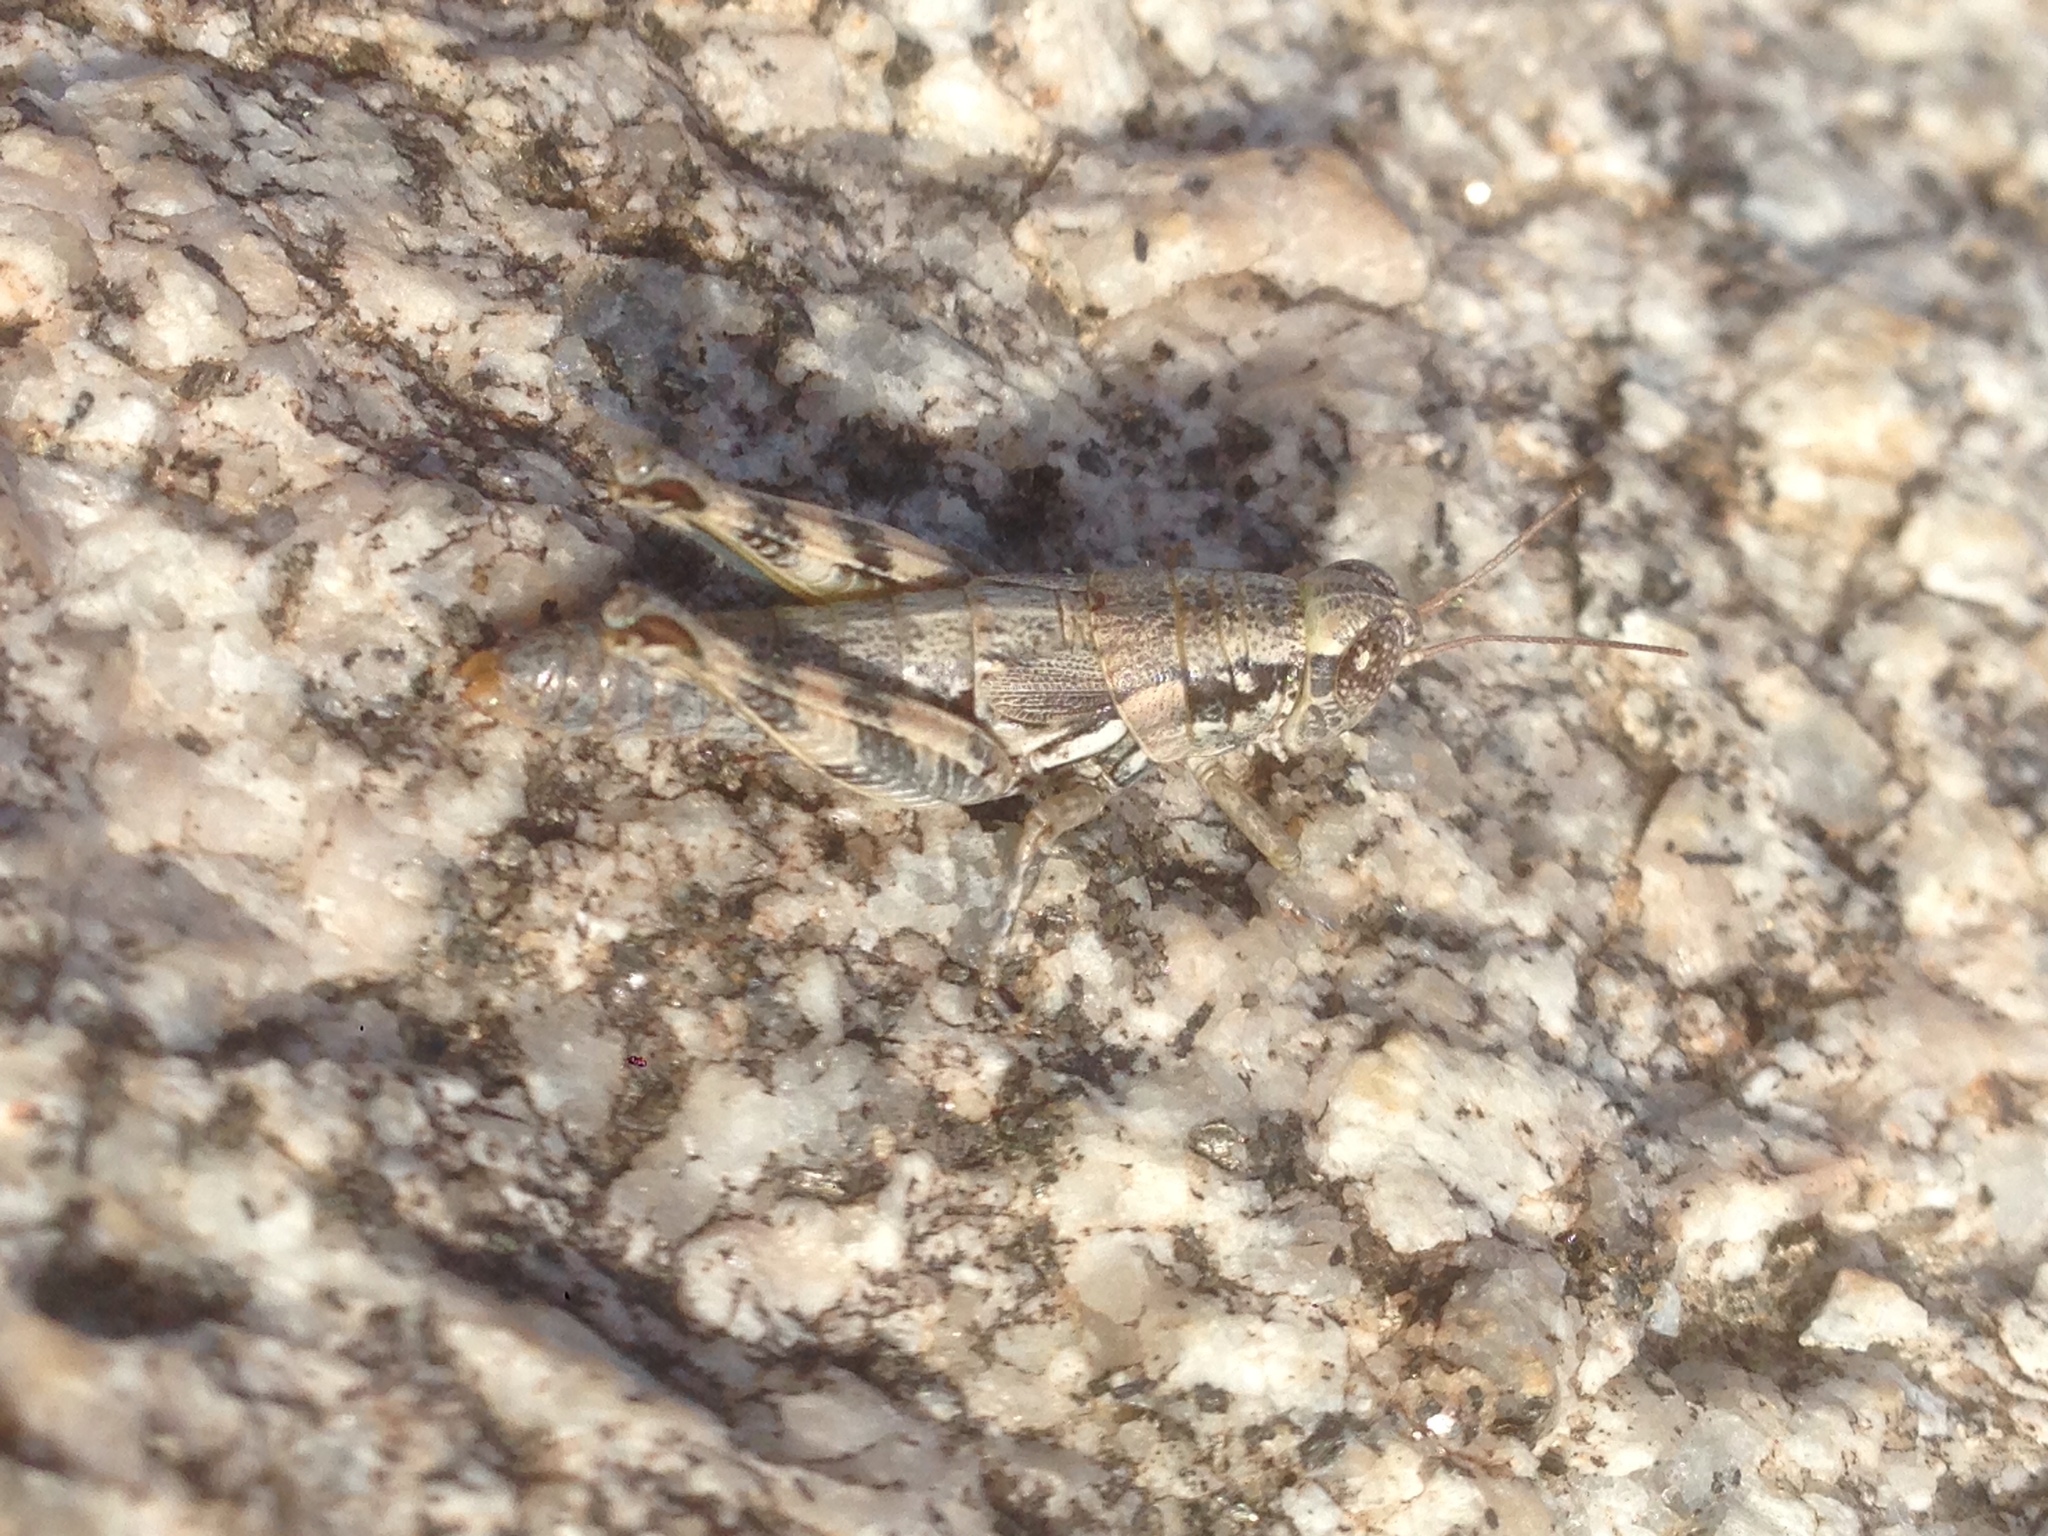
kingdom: Animalia
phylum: Arthropoda
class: Insecta
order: Orthoptera
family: Acrididae
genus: Melanoplus
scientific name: Melanoplus aridus
